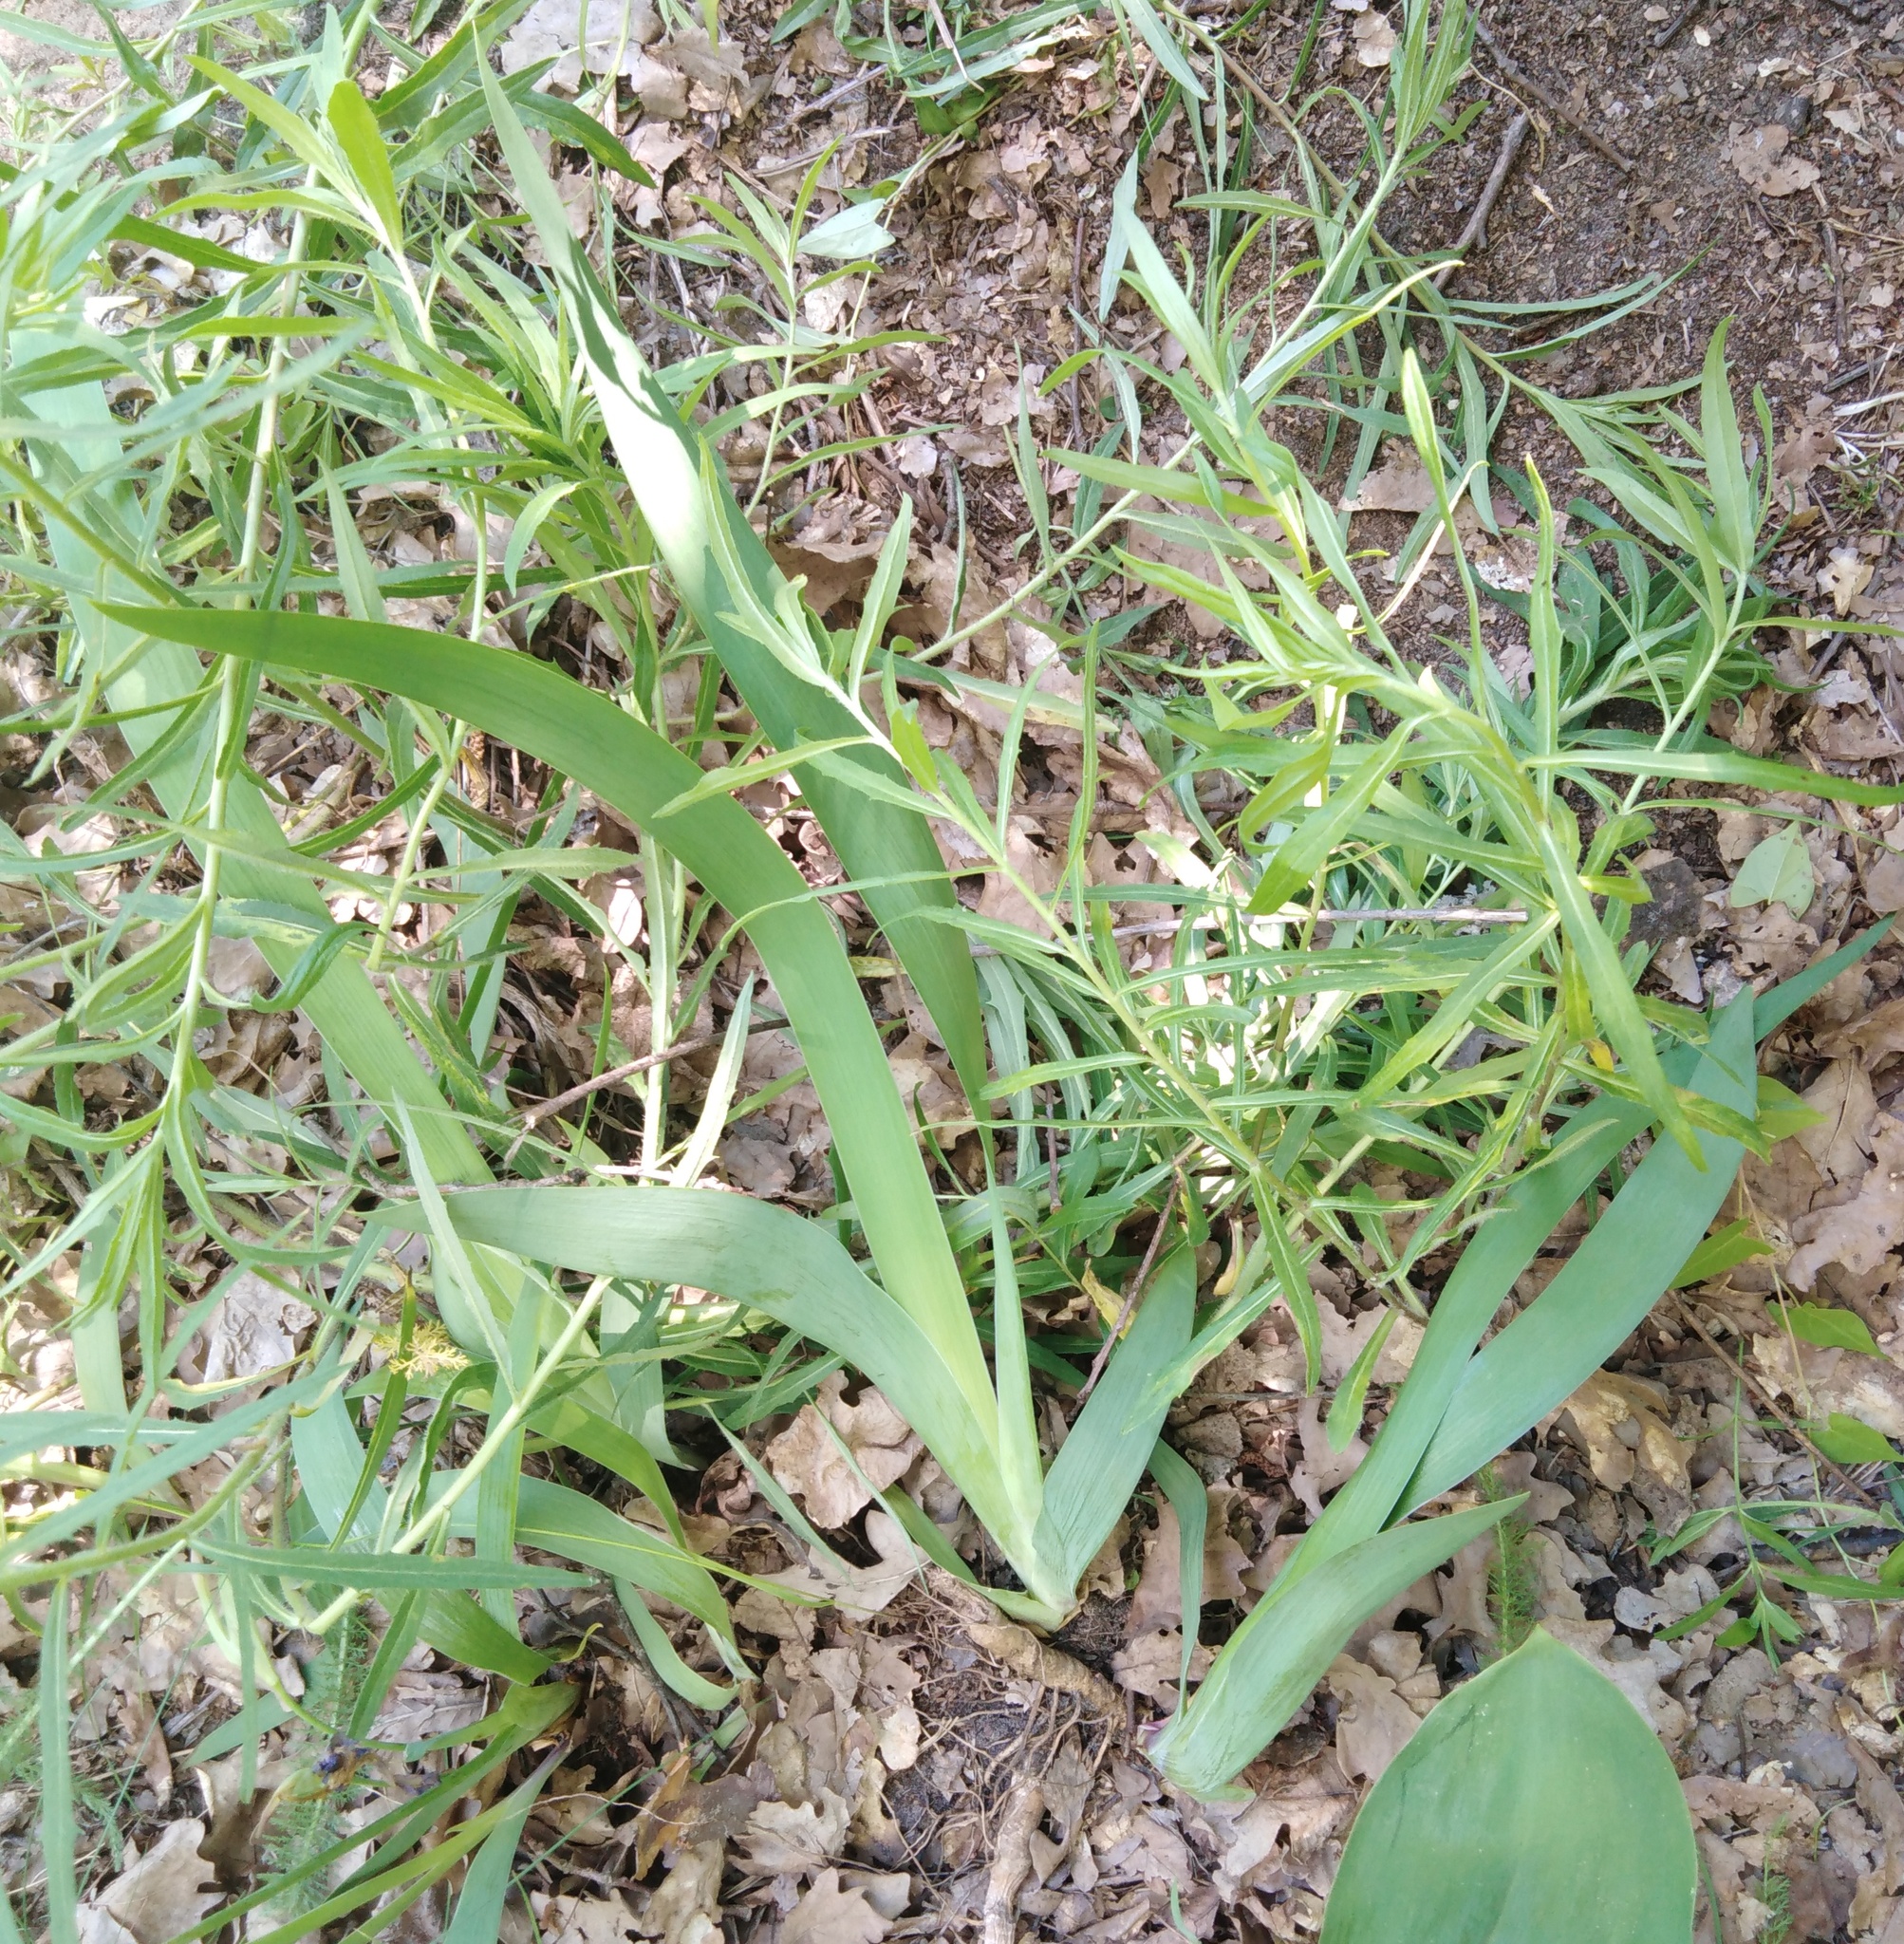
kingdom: Plantae
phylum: Tracheophyta
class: Liliopsida
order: Asparagales
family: Iridaceae
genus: Iris
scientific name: Iris aphylla
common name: Stool iris
